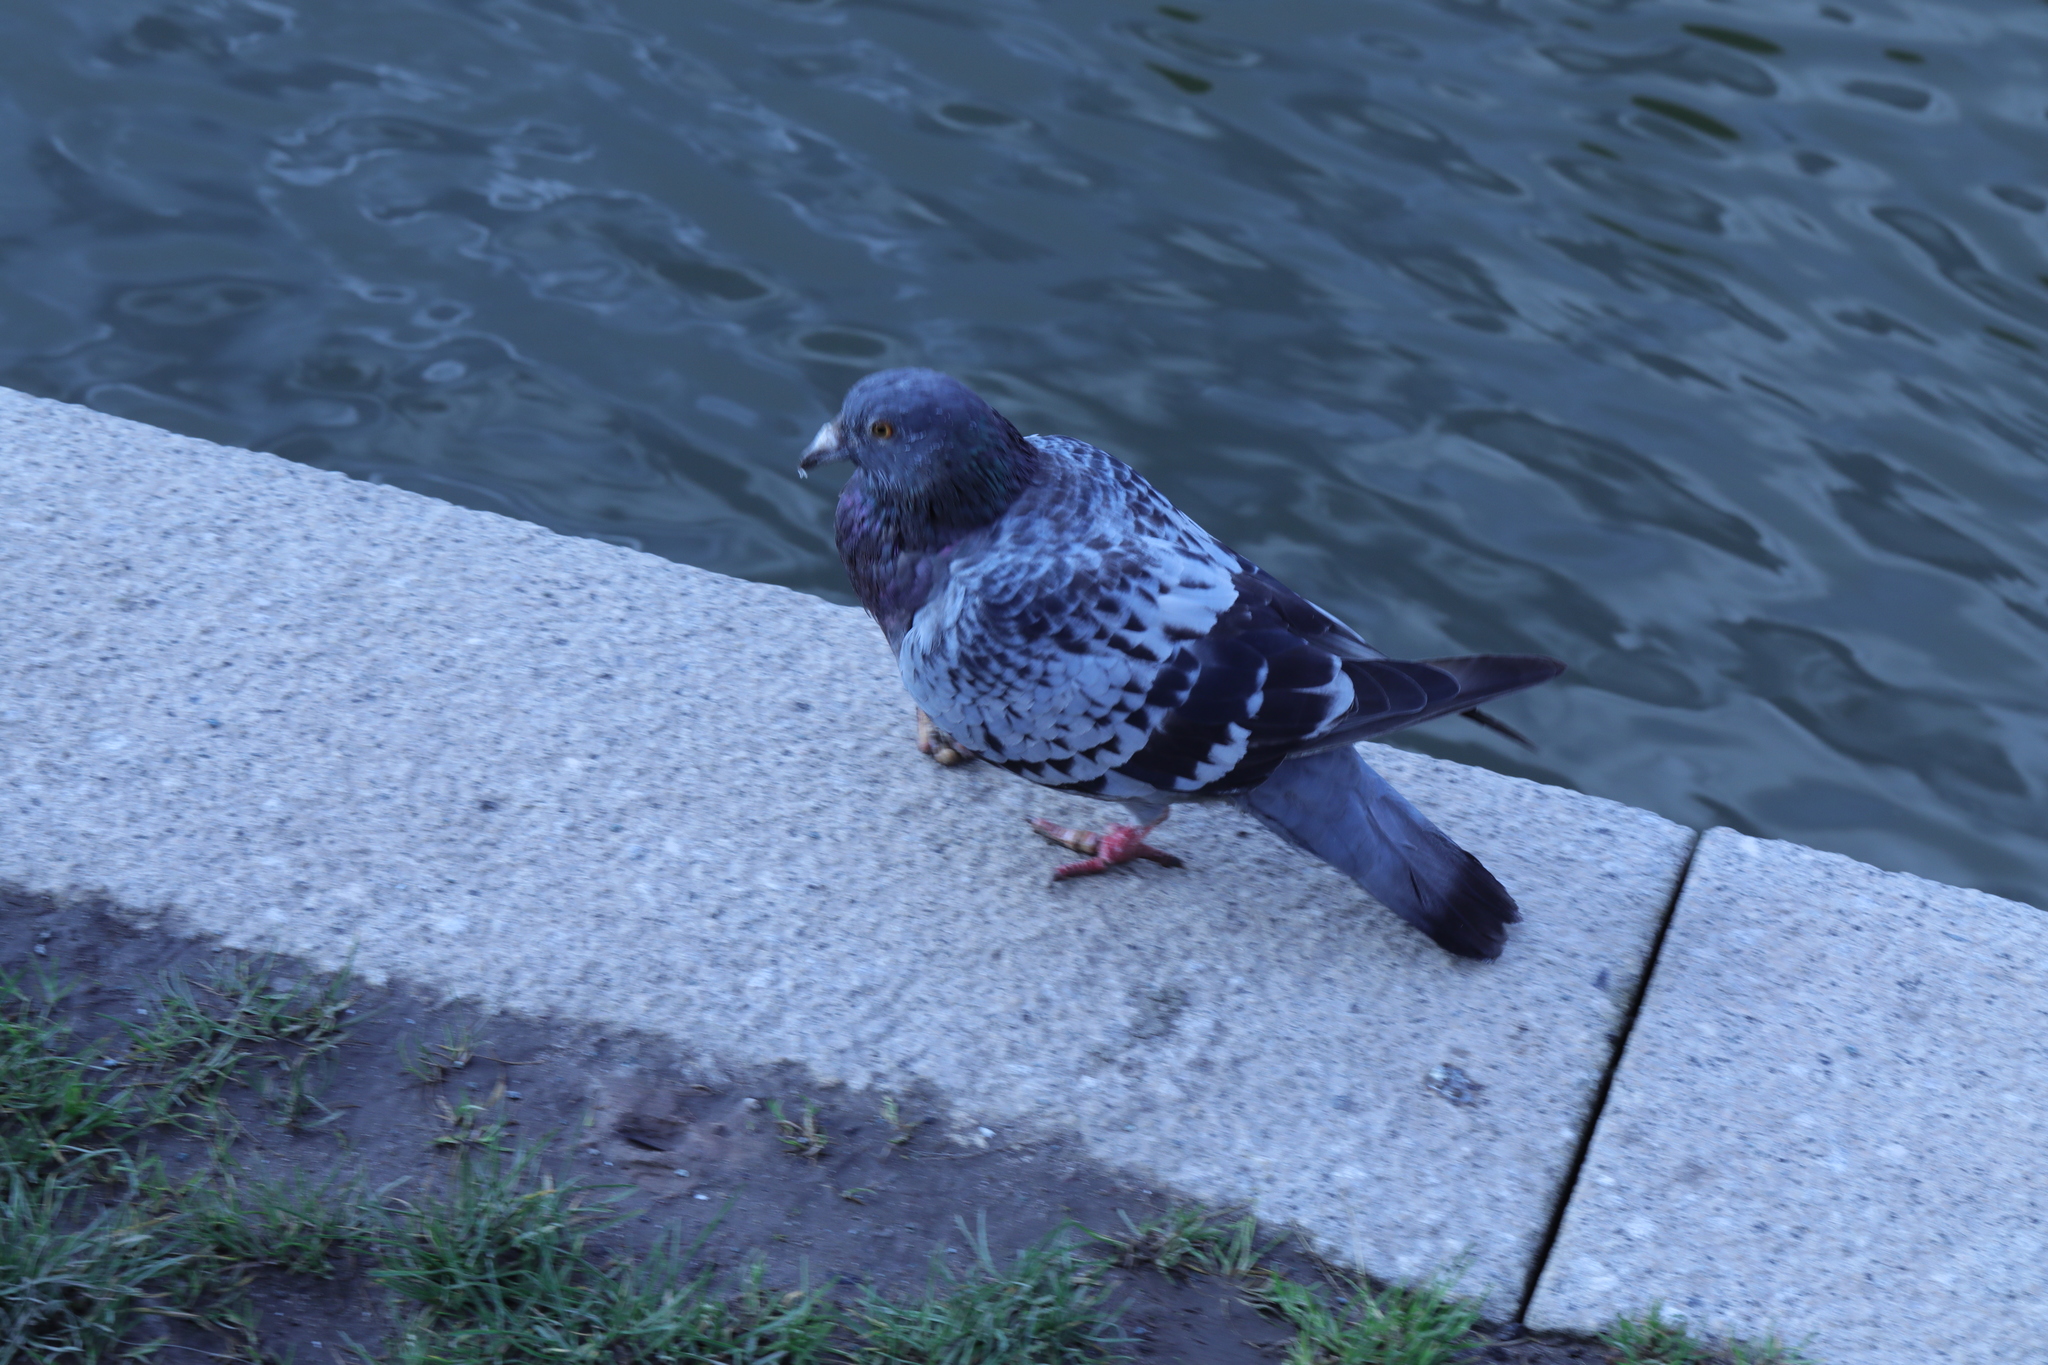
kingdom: Animalia
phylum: Chordata
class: Aves
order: Columbiformes
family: Columbidae
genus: Columba
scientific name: Columba livia
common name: Rock pigeon
